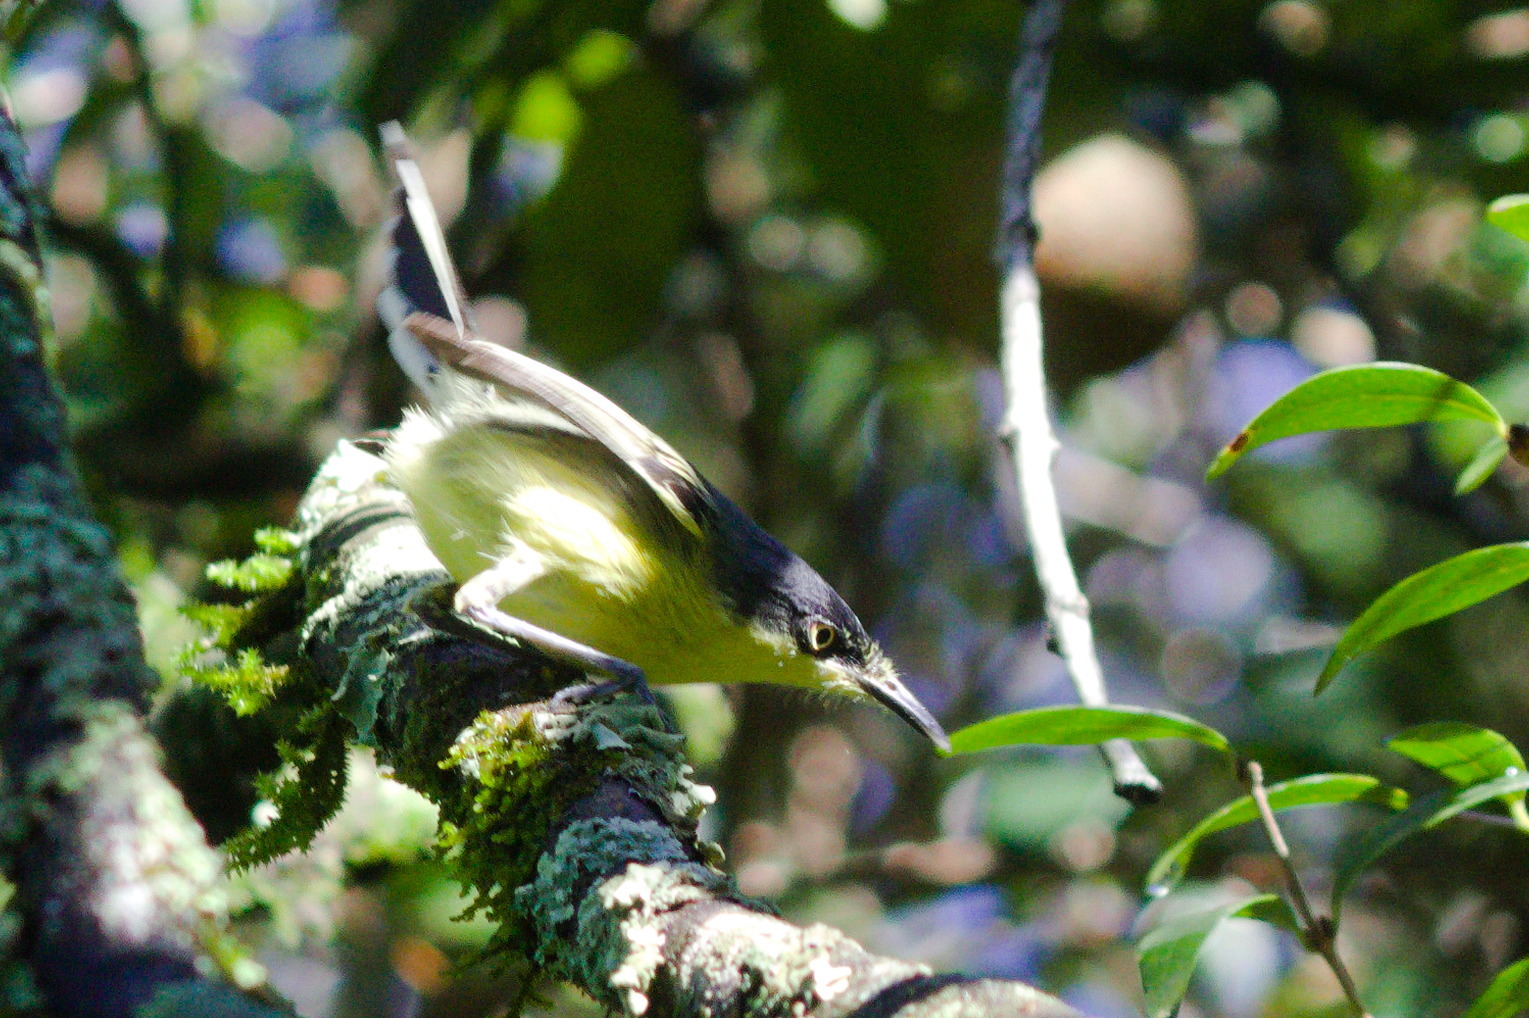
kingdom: Animalia
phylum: Chordata
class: Aves
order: Passeriformes
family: Tyrannidae
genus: Todirostrum
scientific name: Todirostrum cinereum
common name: Common tody-flycatcher
